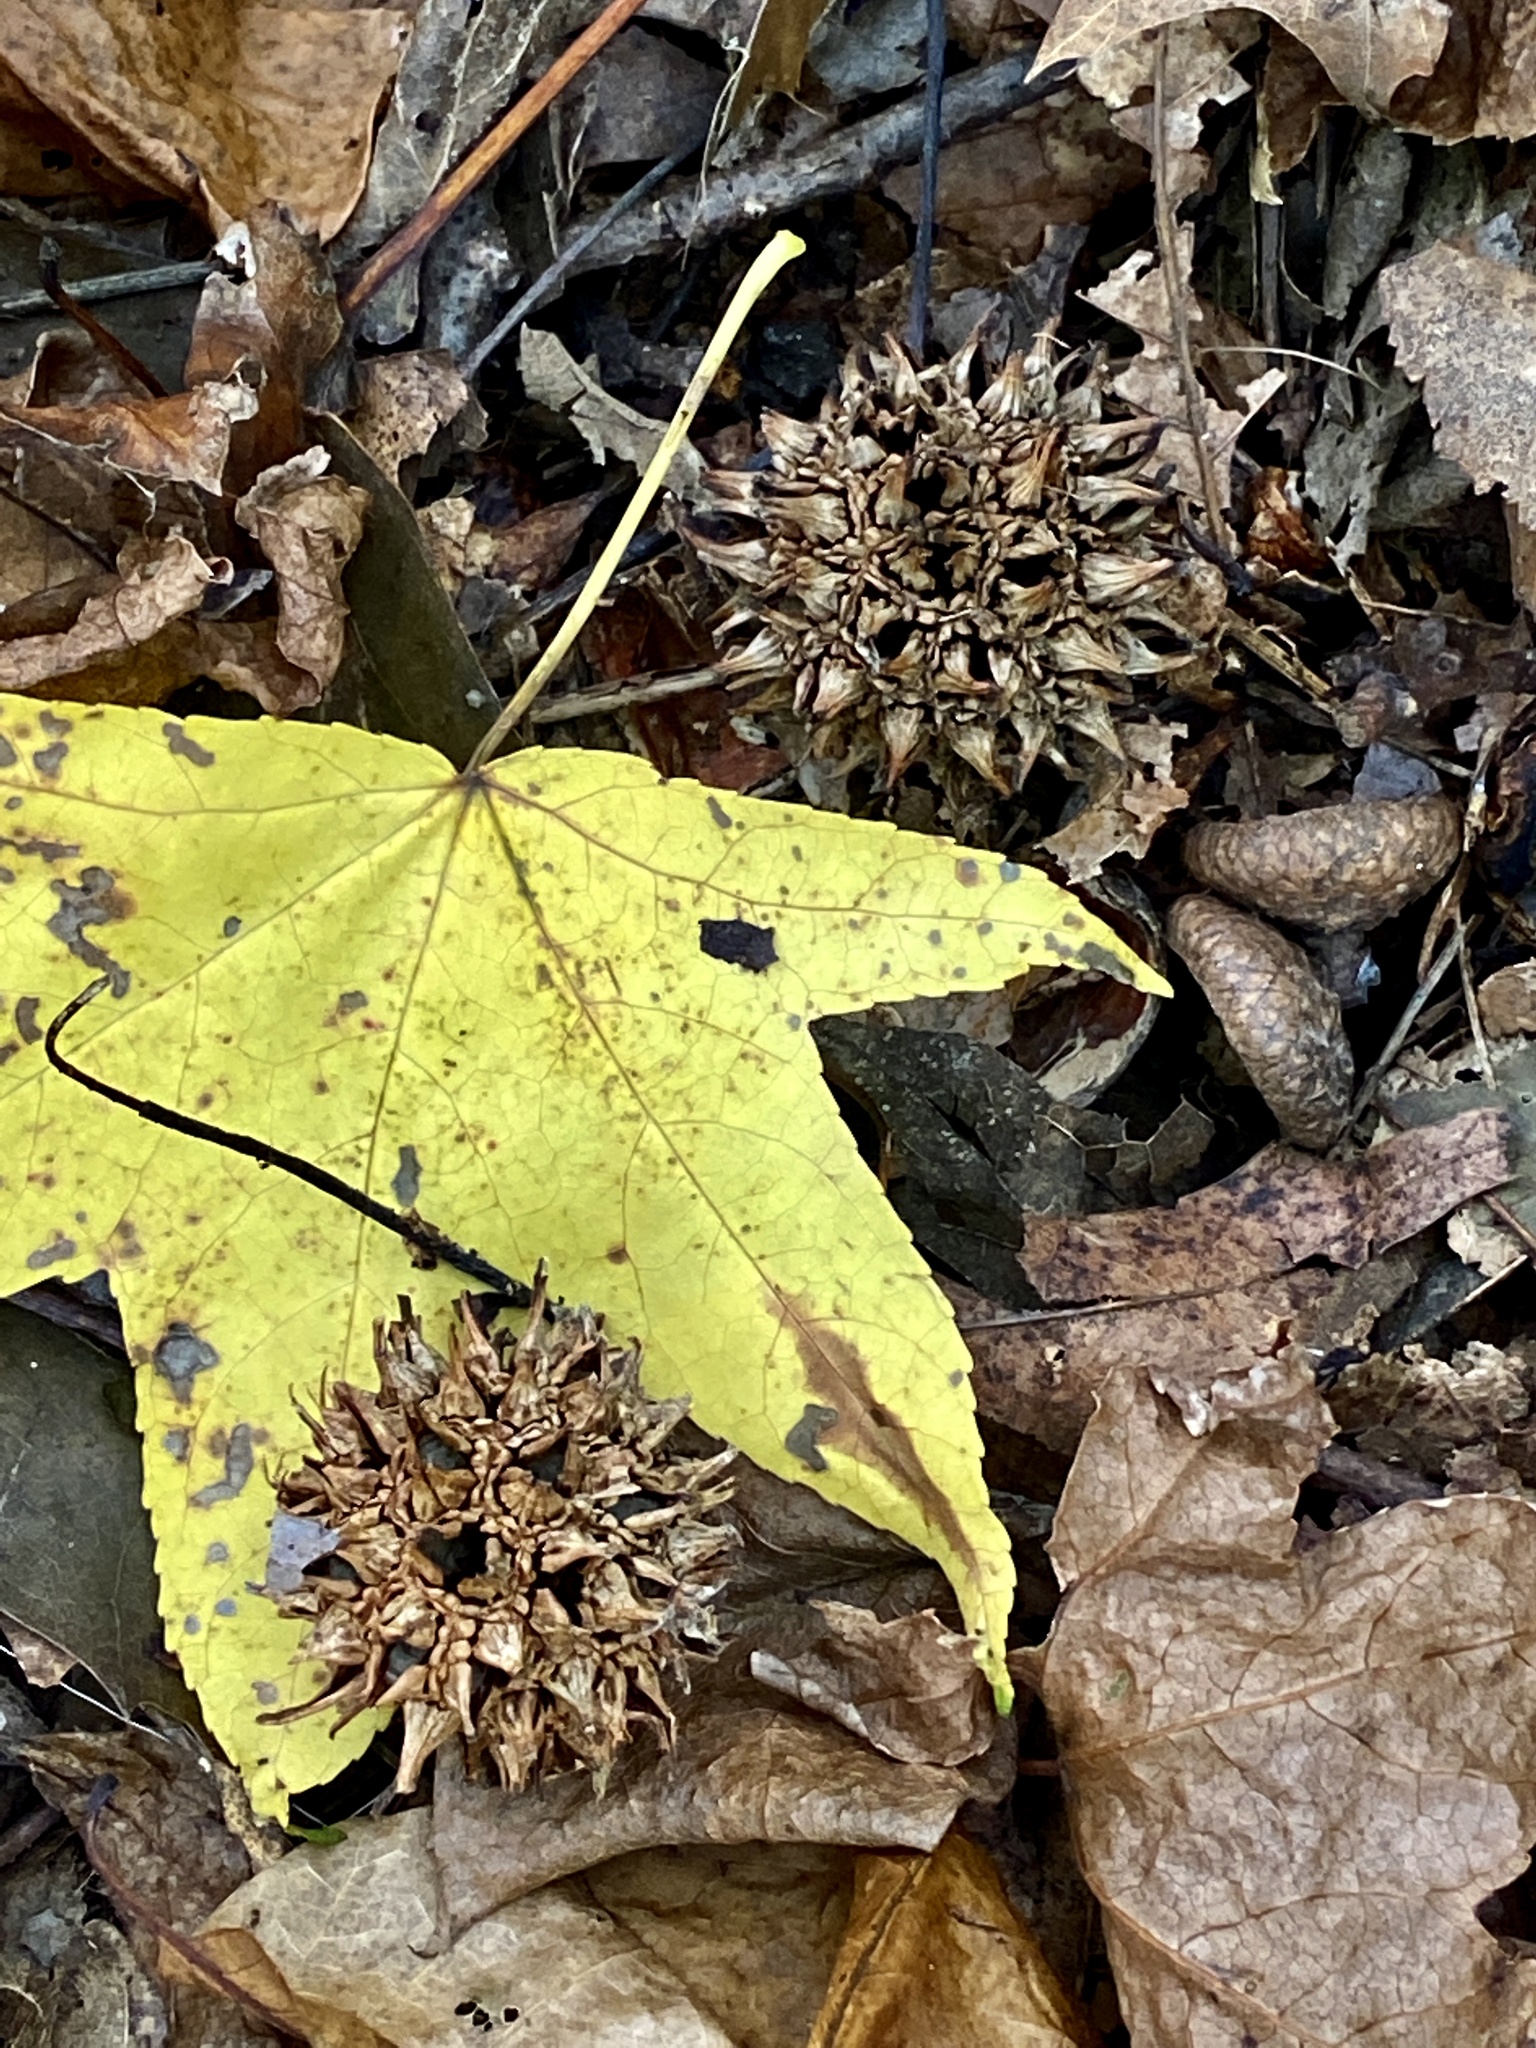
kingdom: Plantae
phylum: Tracheophyta
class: Magnoliopsida
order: Saxifragales
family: Altingiaceae
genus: Liquidambar
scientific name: Liquidambar styraciflua
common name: Sweet gum
